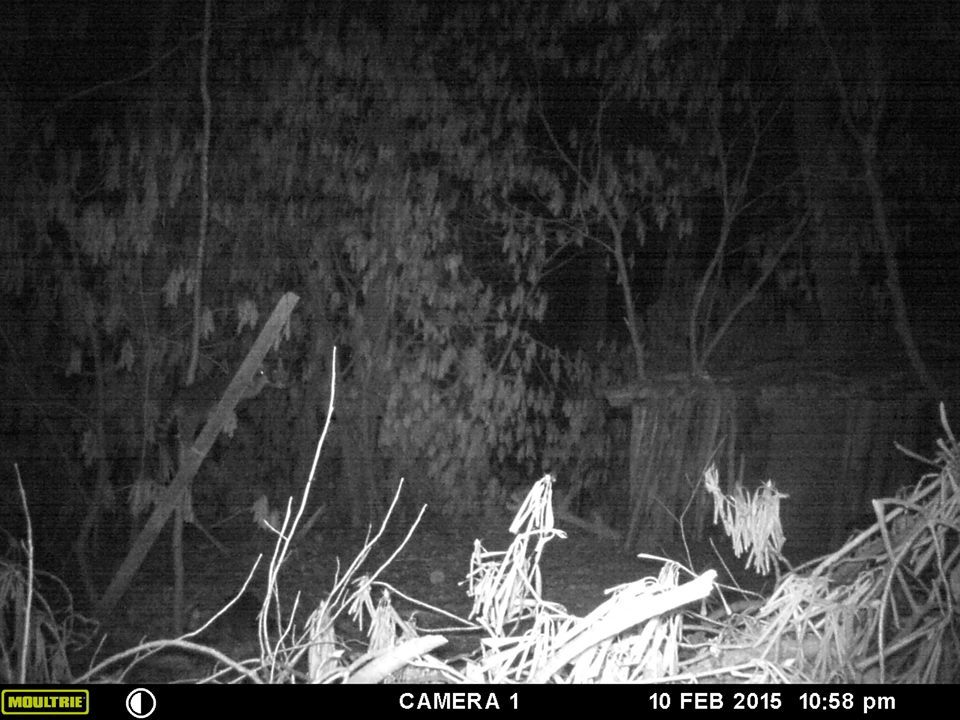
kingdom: Animalia
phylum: Chordata
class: Mammalia
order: Carnivora
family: Procyonidae
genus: Procyon
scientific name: Procyon lotor
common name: Raccoon
